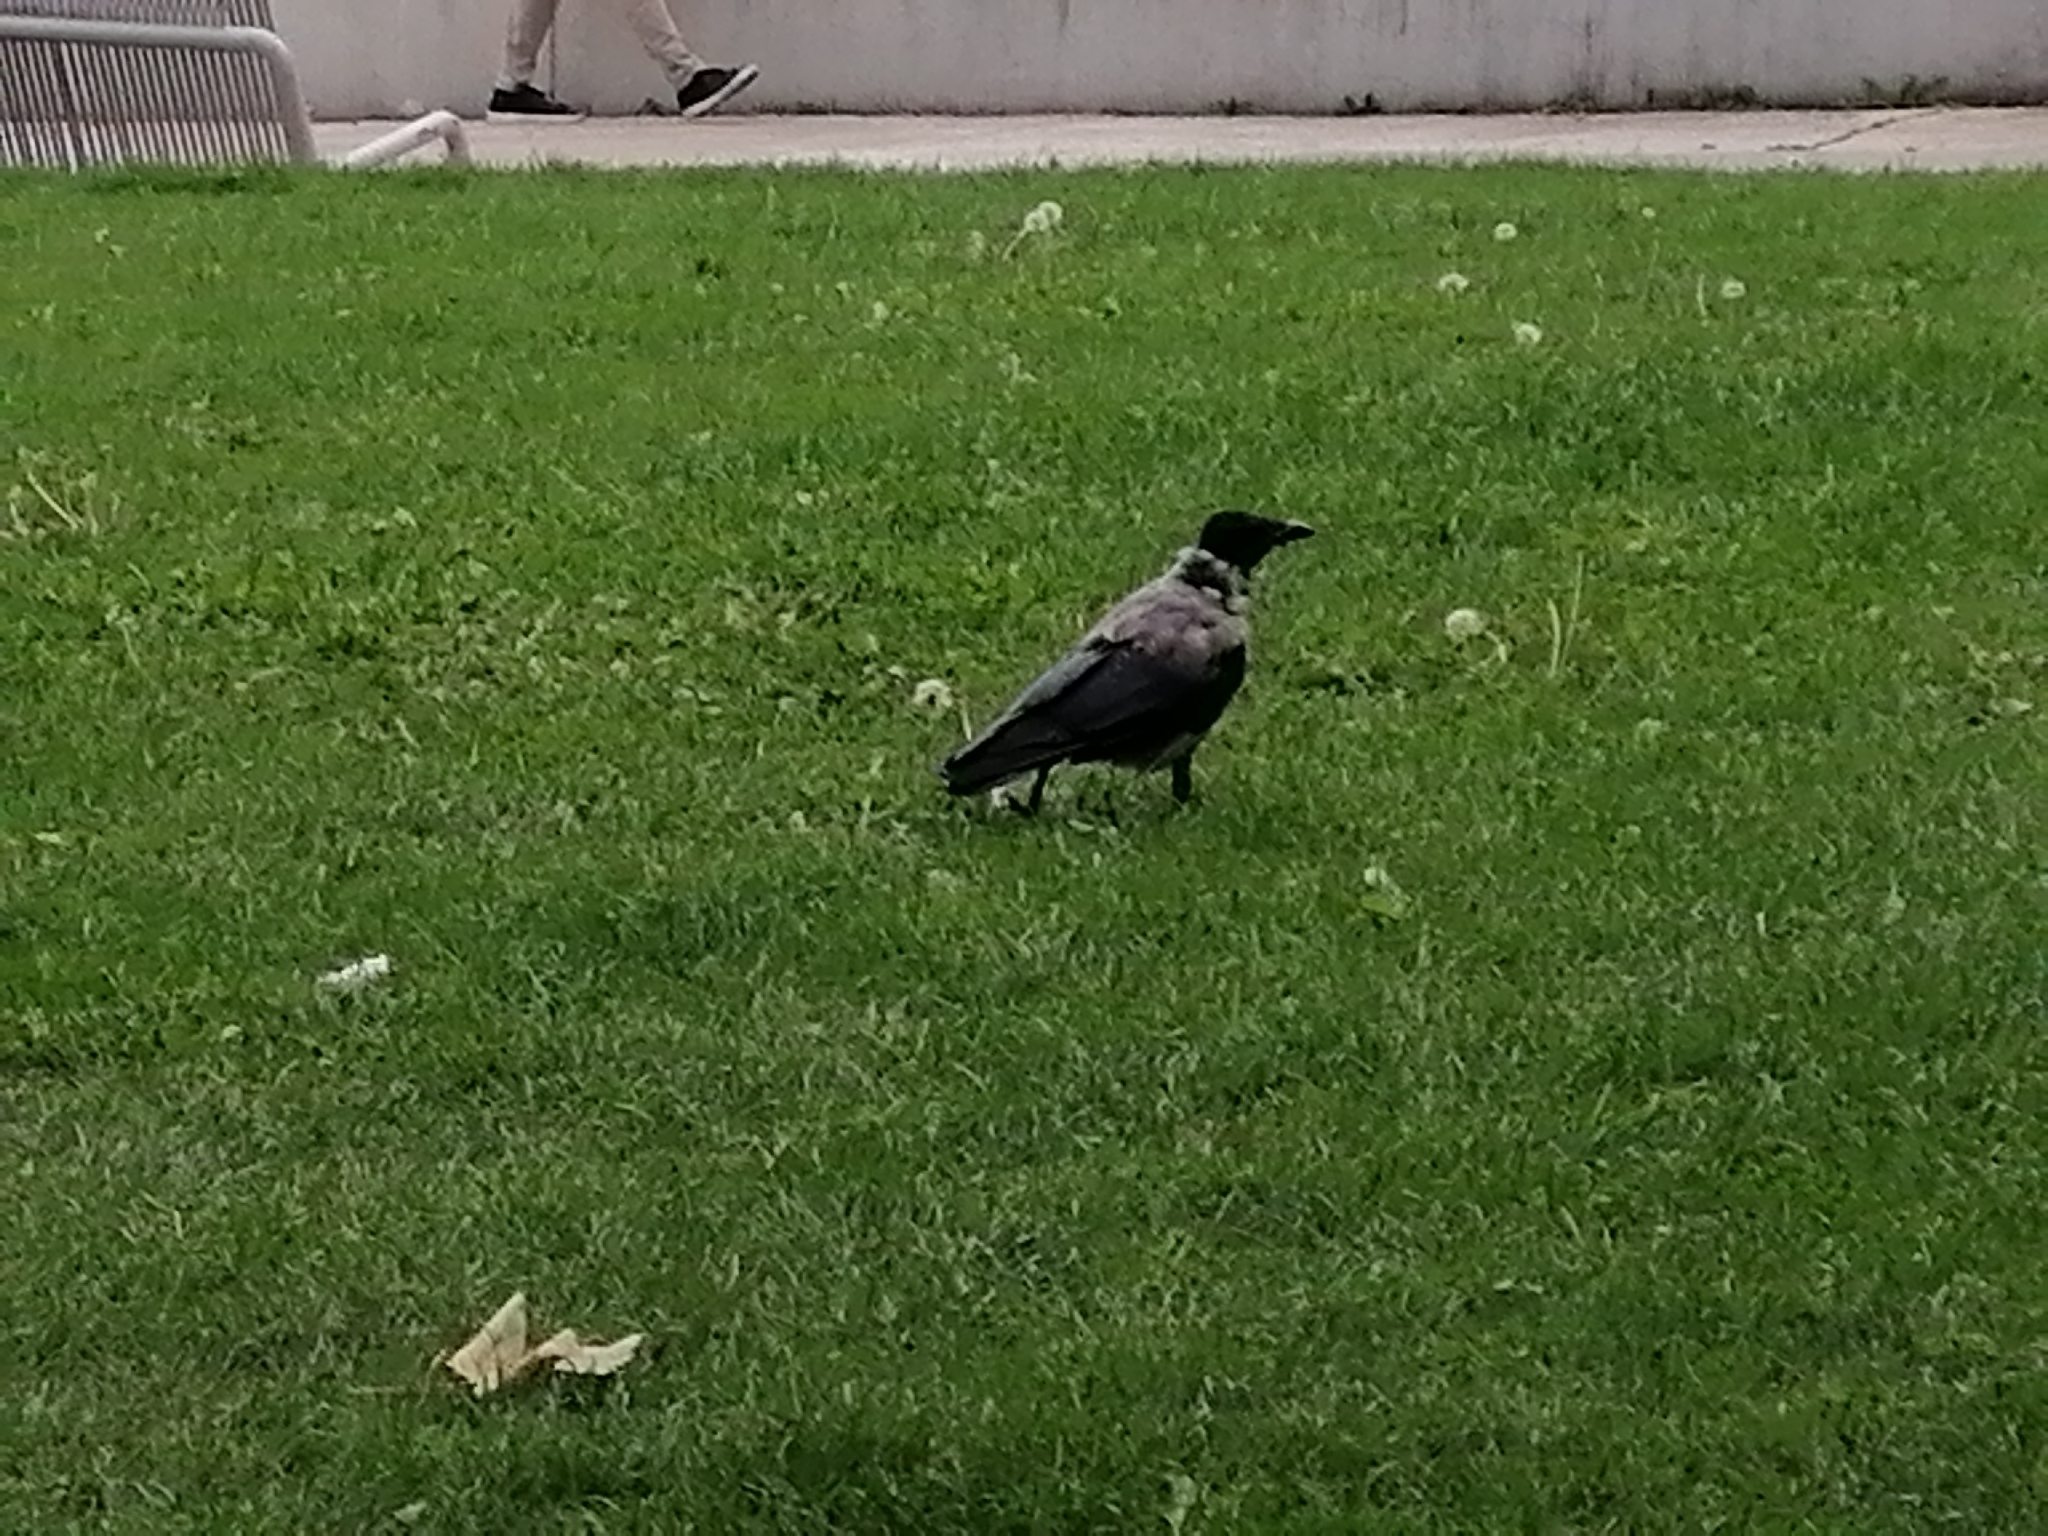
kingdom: Animalia
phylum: Chordata
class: Aves
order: Passeriformes
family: Corvidae
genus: Corvus
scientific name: Corvus cornix
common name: Hooded crow
